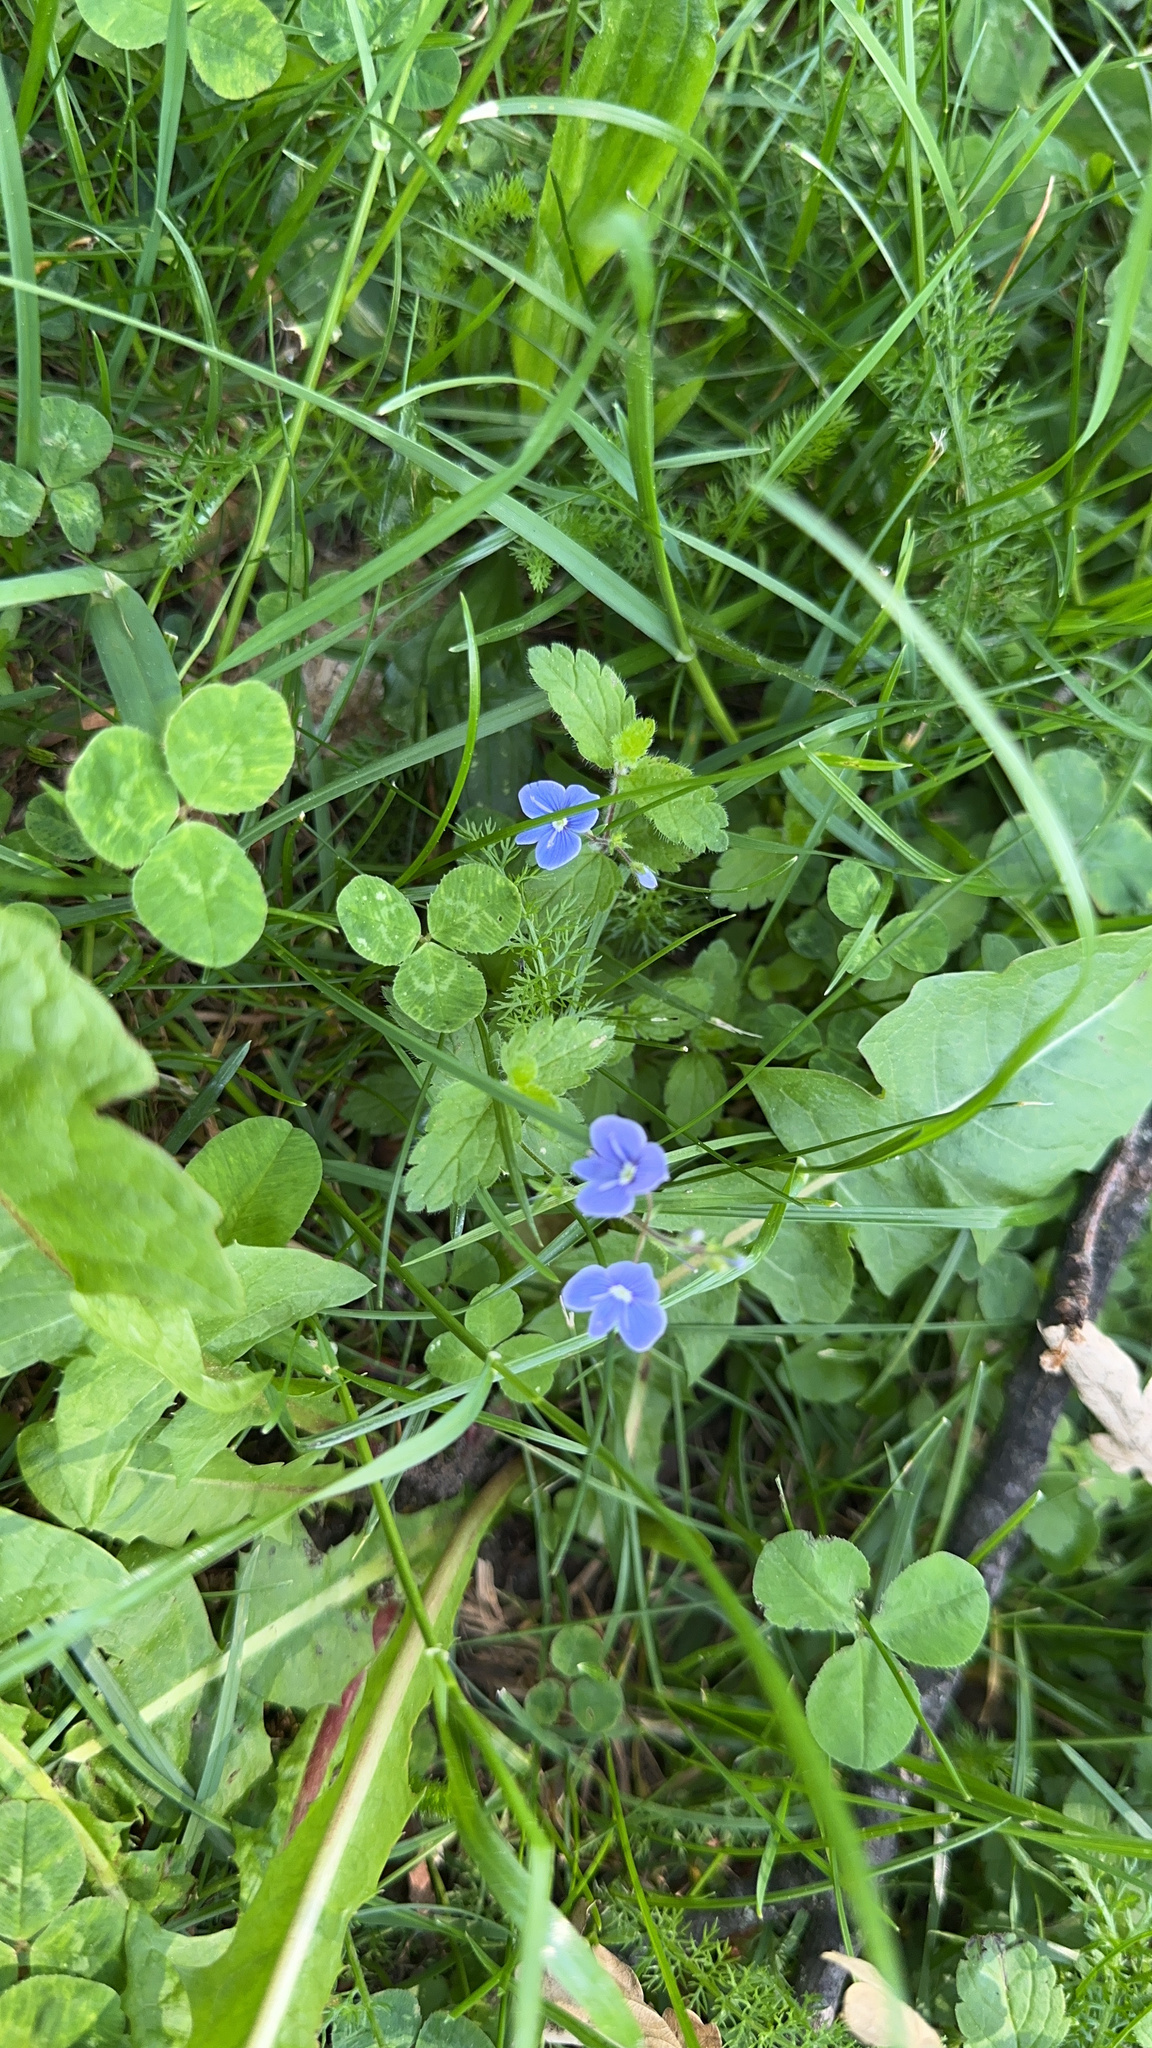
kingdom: Plantae
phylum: Tracheophyta
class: Magnoliopsida
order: Lamiales
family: Plantaginaceae
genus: Veronica
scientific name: Veronica chamaedrys
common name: Germander speedwell
